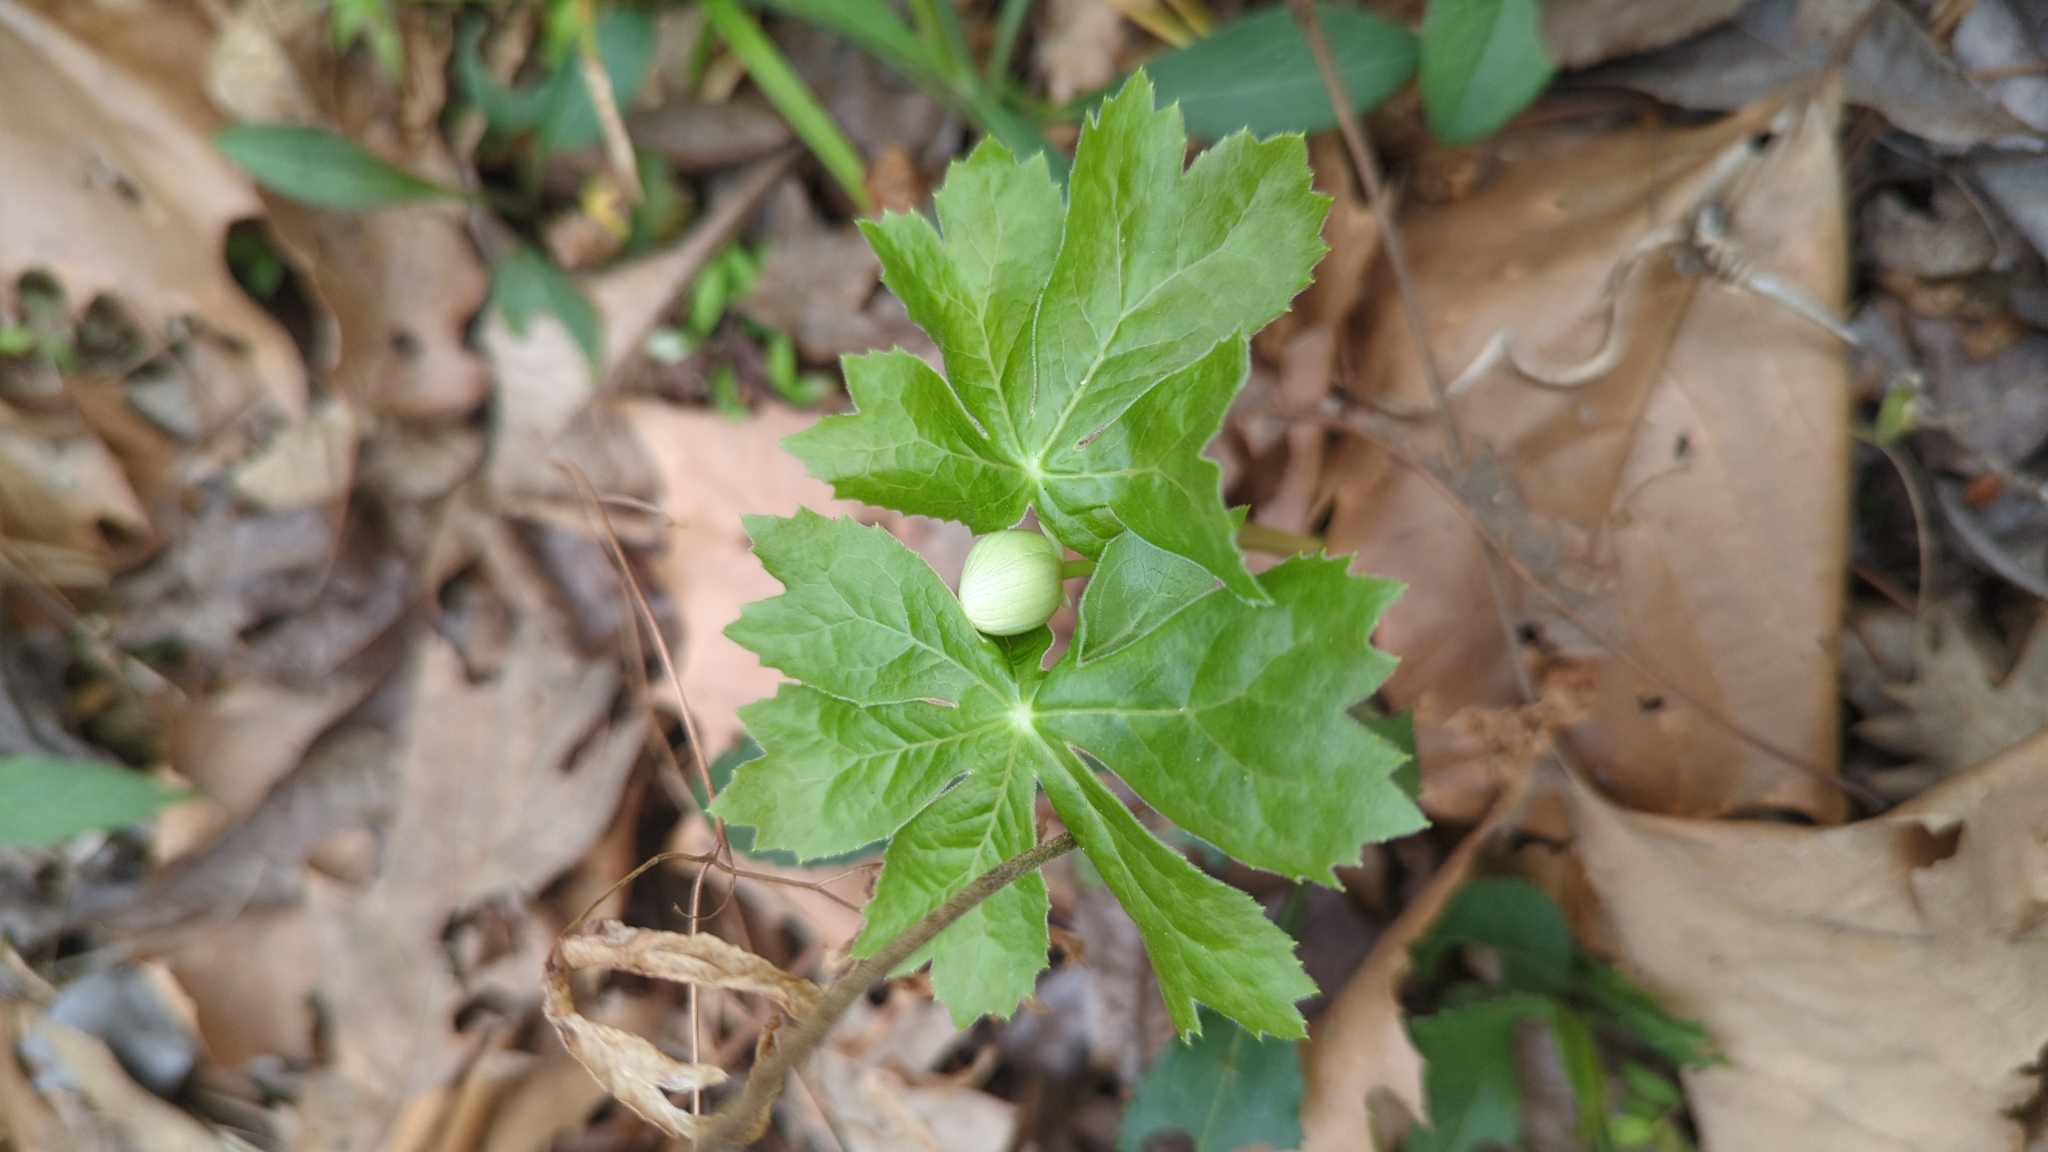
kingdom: Plantae
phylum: Tracheophyta
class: Magnoliopsida
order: Ranunculales
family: Berberidaceae
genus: Podophyllum
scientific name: Podophyllum peltatum
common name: Wild mandrake
